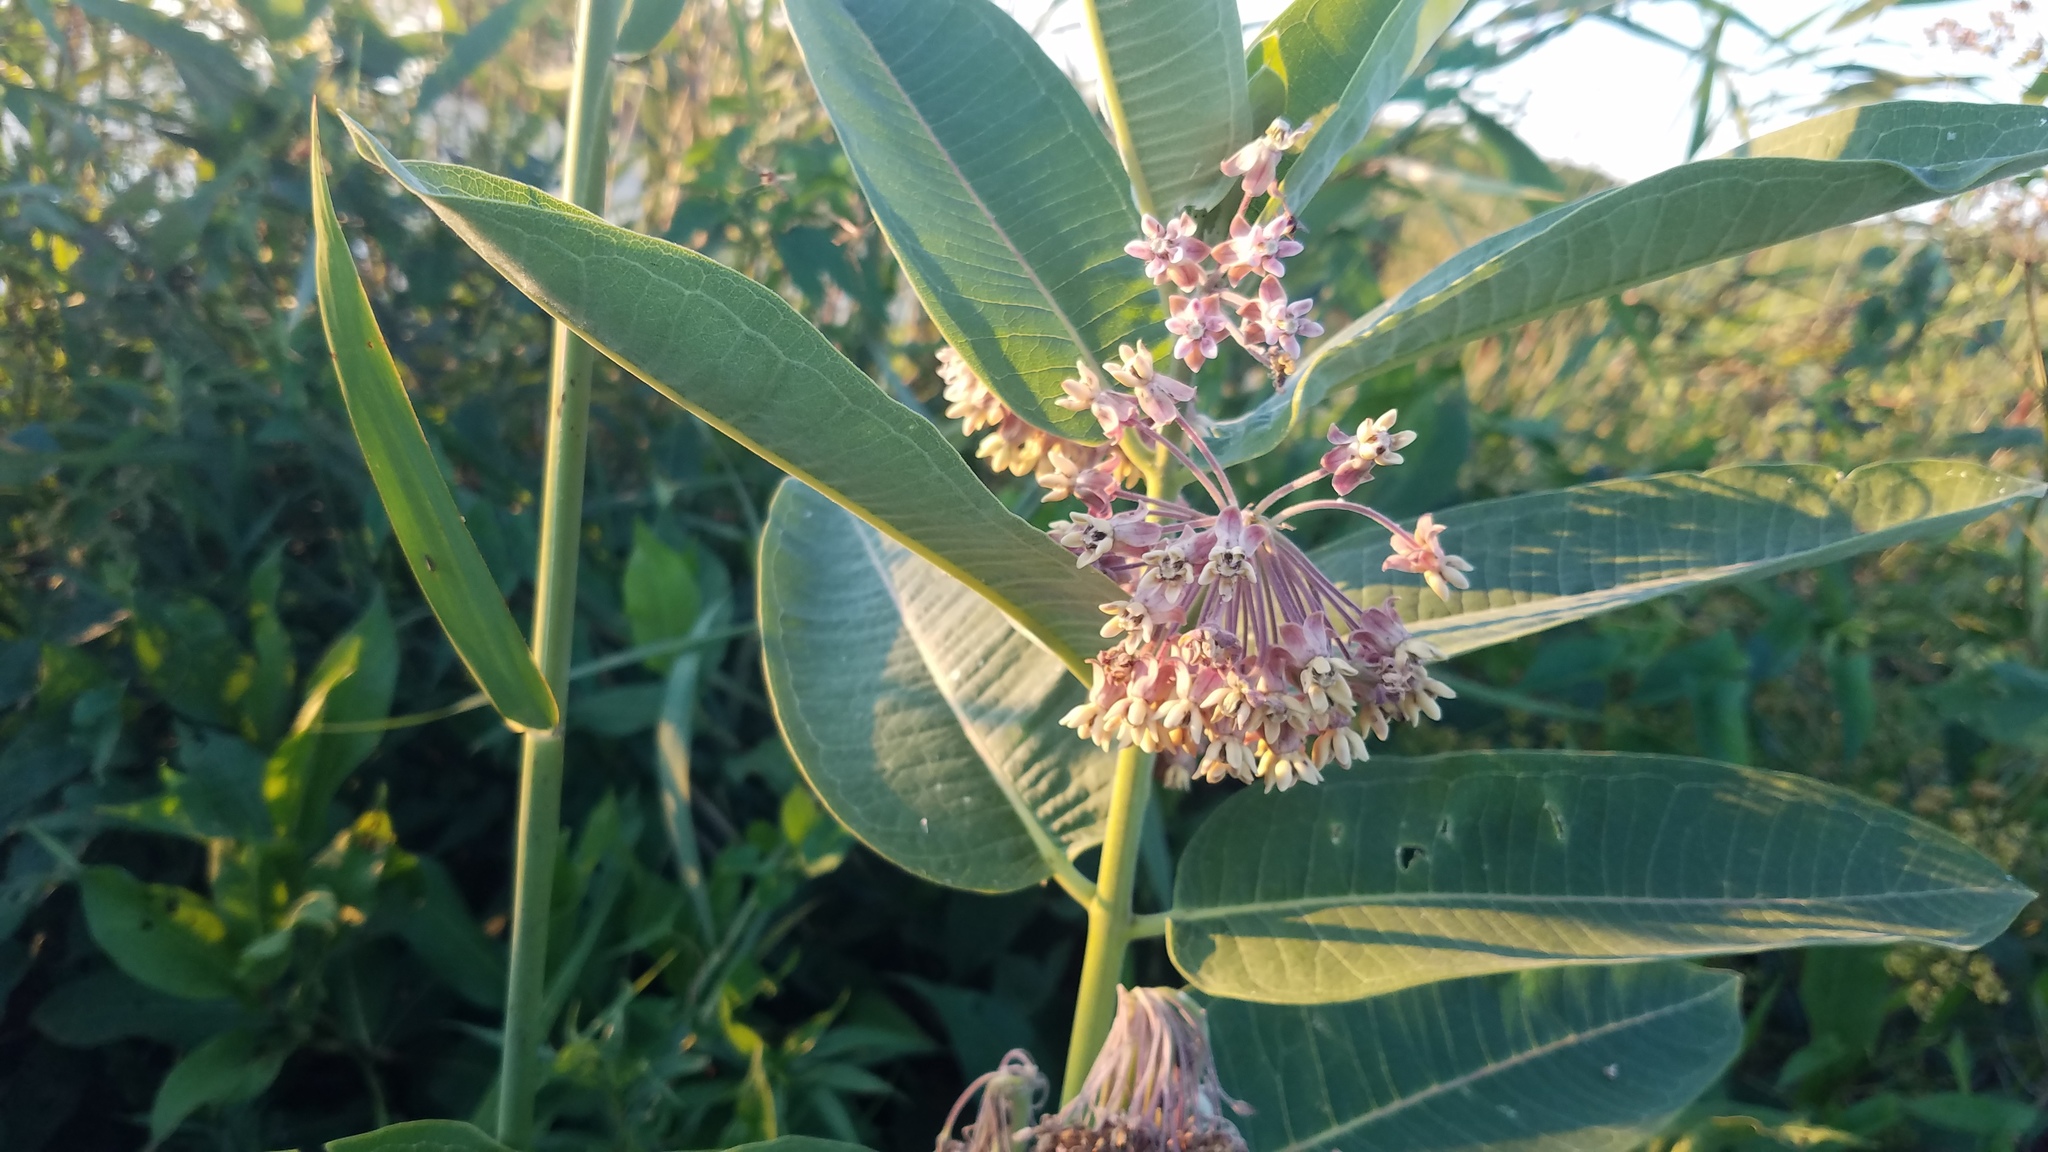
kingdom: Plantae
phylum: Tracheophyta
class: Magnoliopsida
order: Gentianales
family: Apocynaceae
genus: Asclepias
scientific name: Asclepias syriaca
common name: Common milkweed
